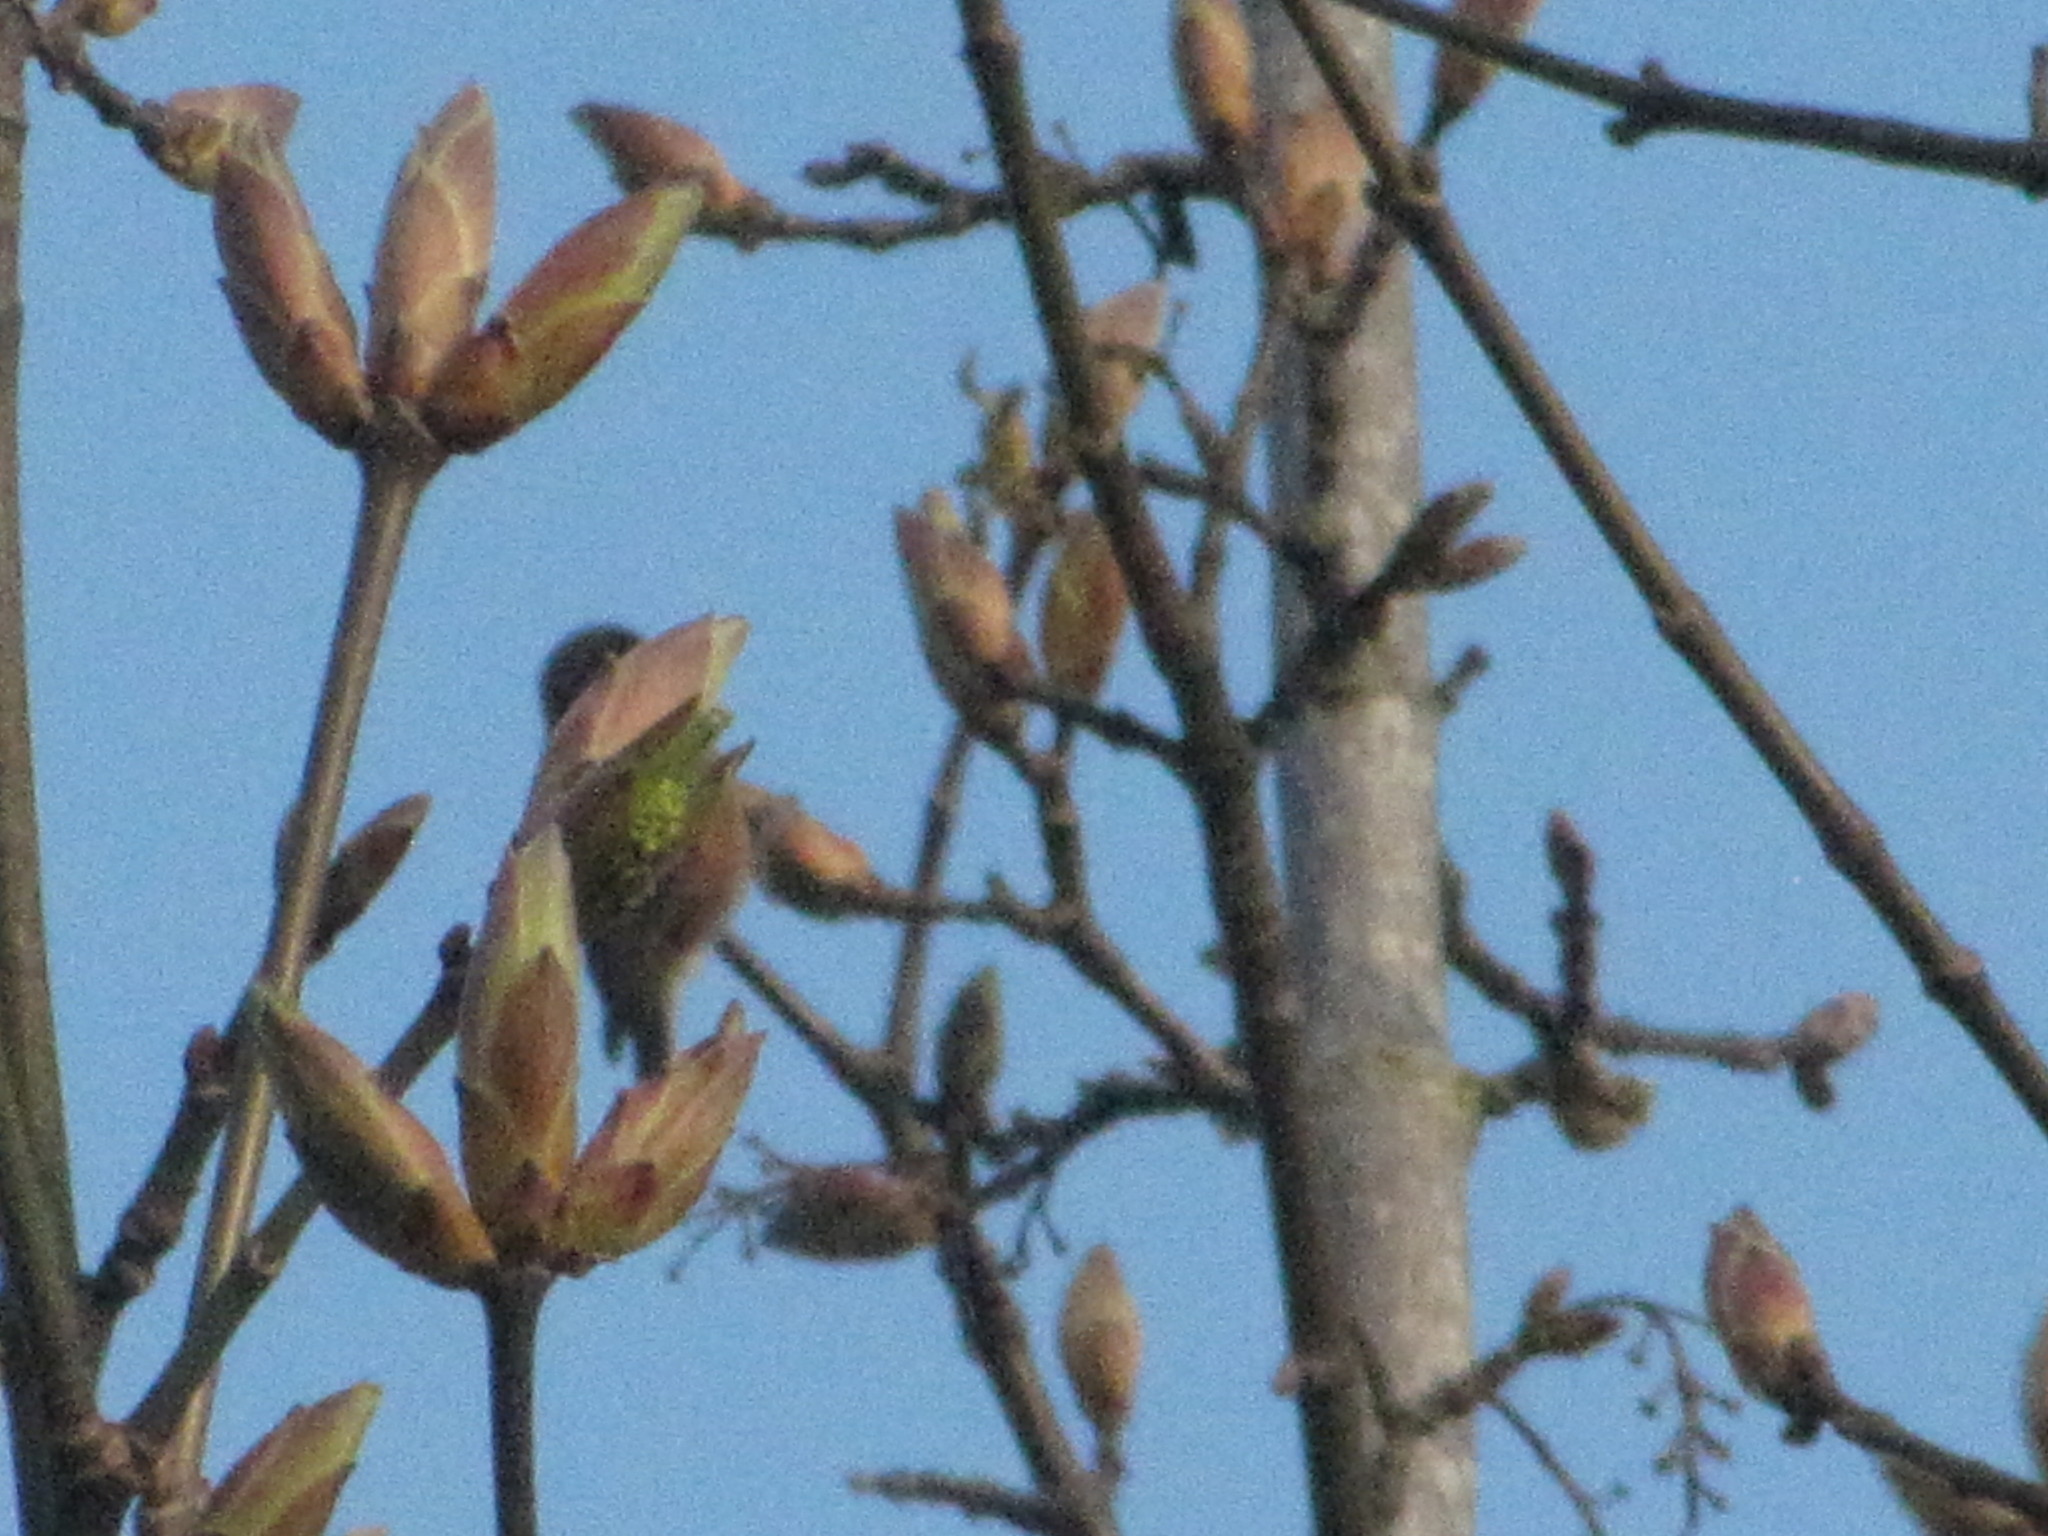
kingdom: Animalia
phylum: Chordata
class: Aves
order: Apodiformes
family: Trochilidae
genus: Calypte
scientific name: Calypte anna
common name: Anna's hummingbird
